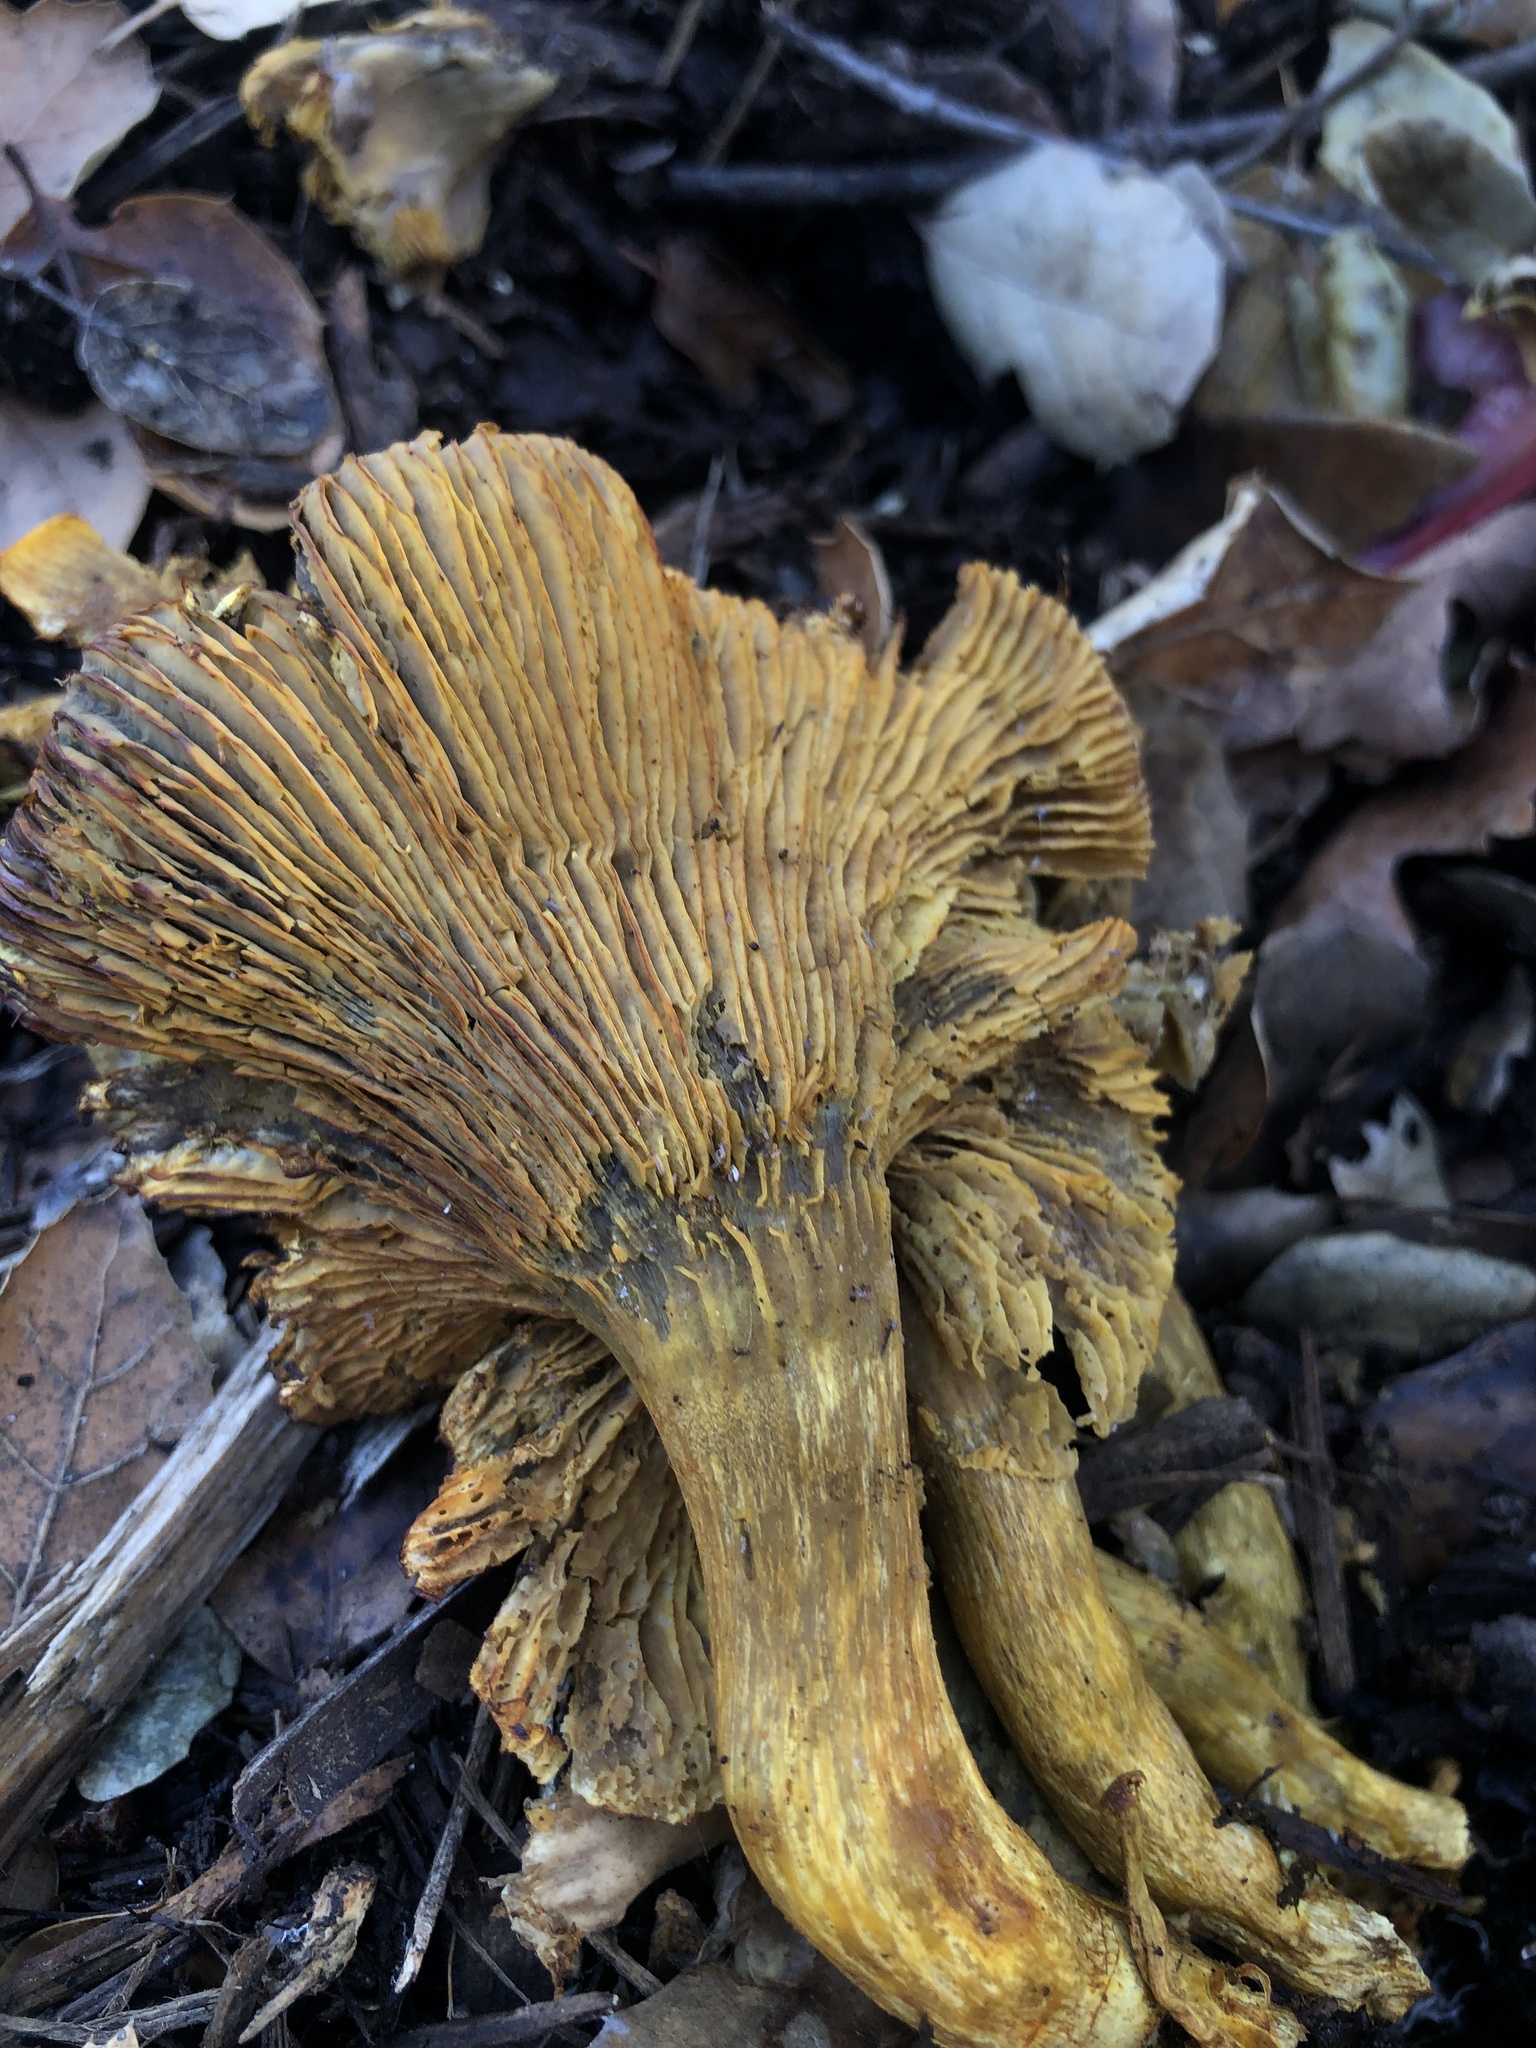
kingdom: Fungi
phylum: Basidiomycota
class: Agaricomycetes
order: Agaricales
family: Omphalotaceae
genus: Omphalotus
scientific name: Omphalotus olivascens
